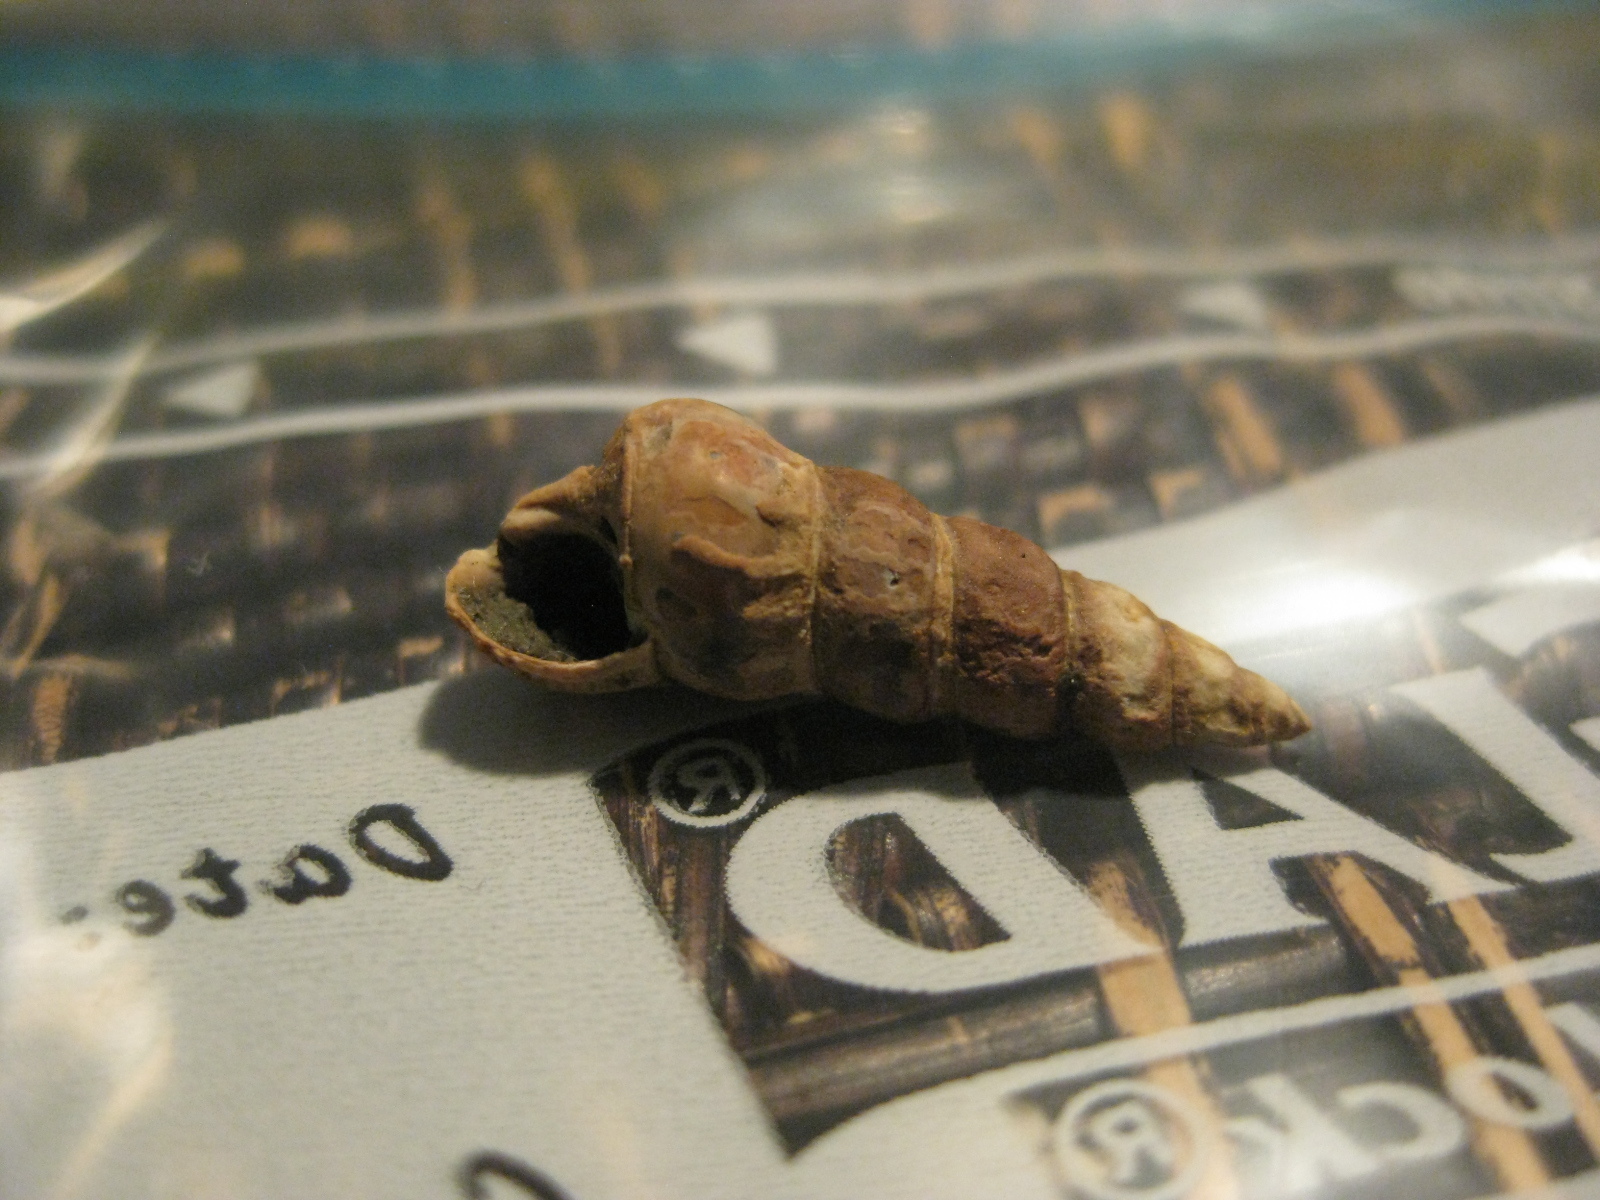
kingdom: Animalia
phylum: Mollusca
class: Gastropoda
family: Batillariidae
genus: Zeacumantus
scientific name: Zeacumantus lutulentus
